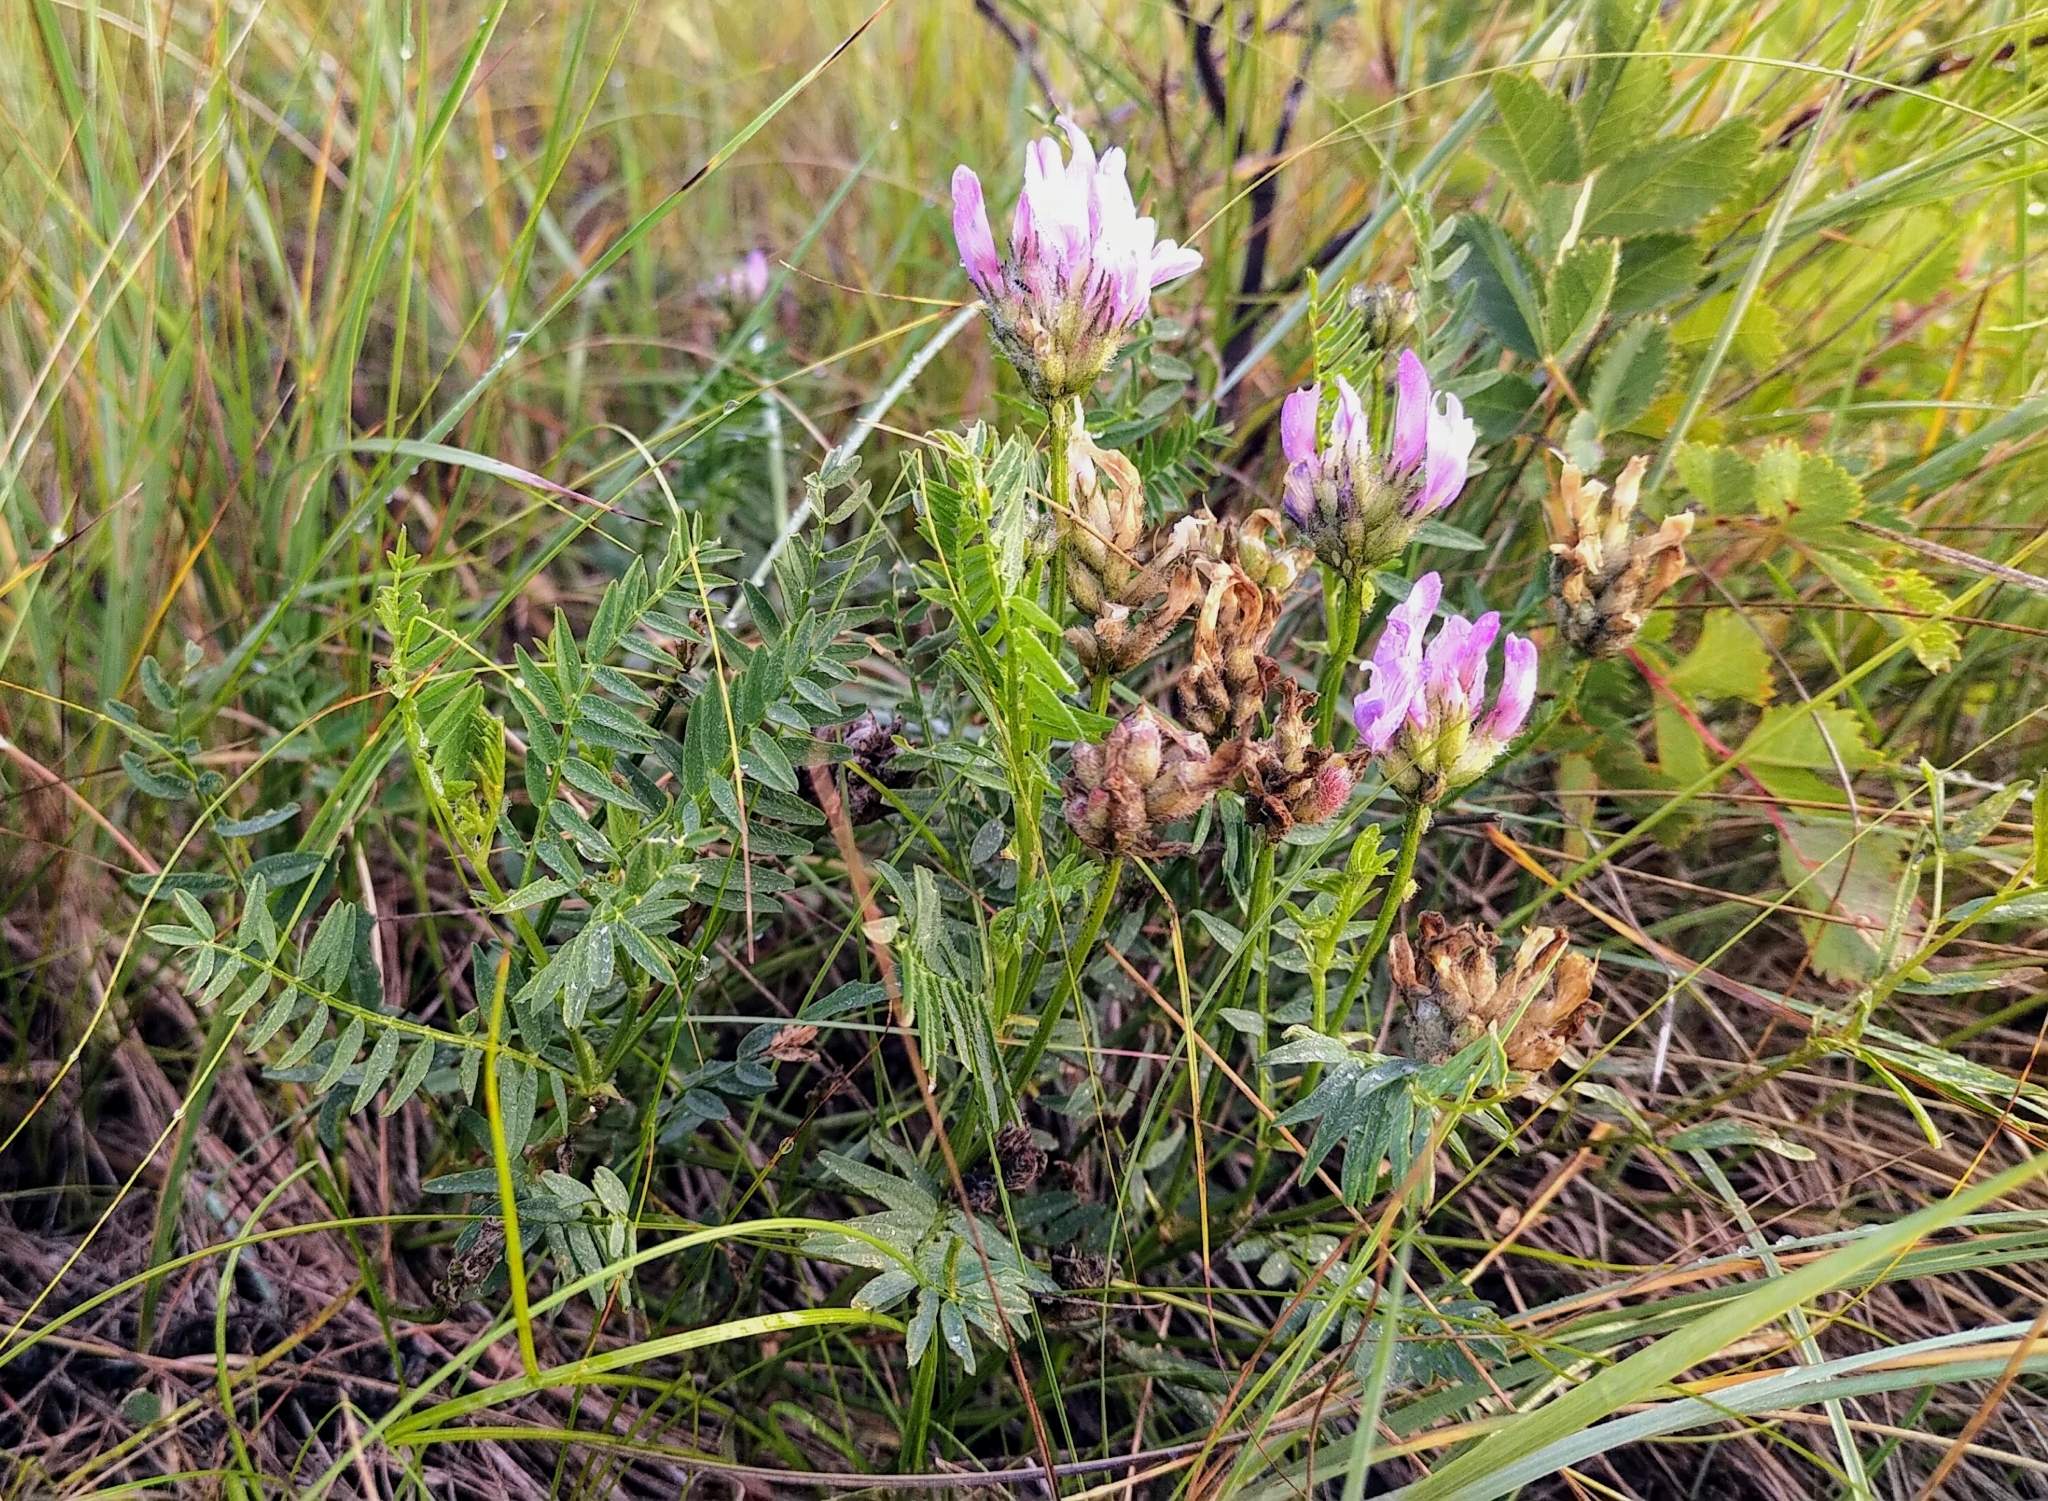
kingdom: Plantae
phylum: Tracheophyta
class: Magnoliopsida
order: Fabales
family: Fabaceae
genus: Astragalus
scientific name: Astragalus agrestis
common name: Field milk-vetch
